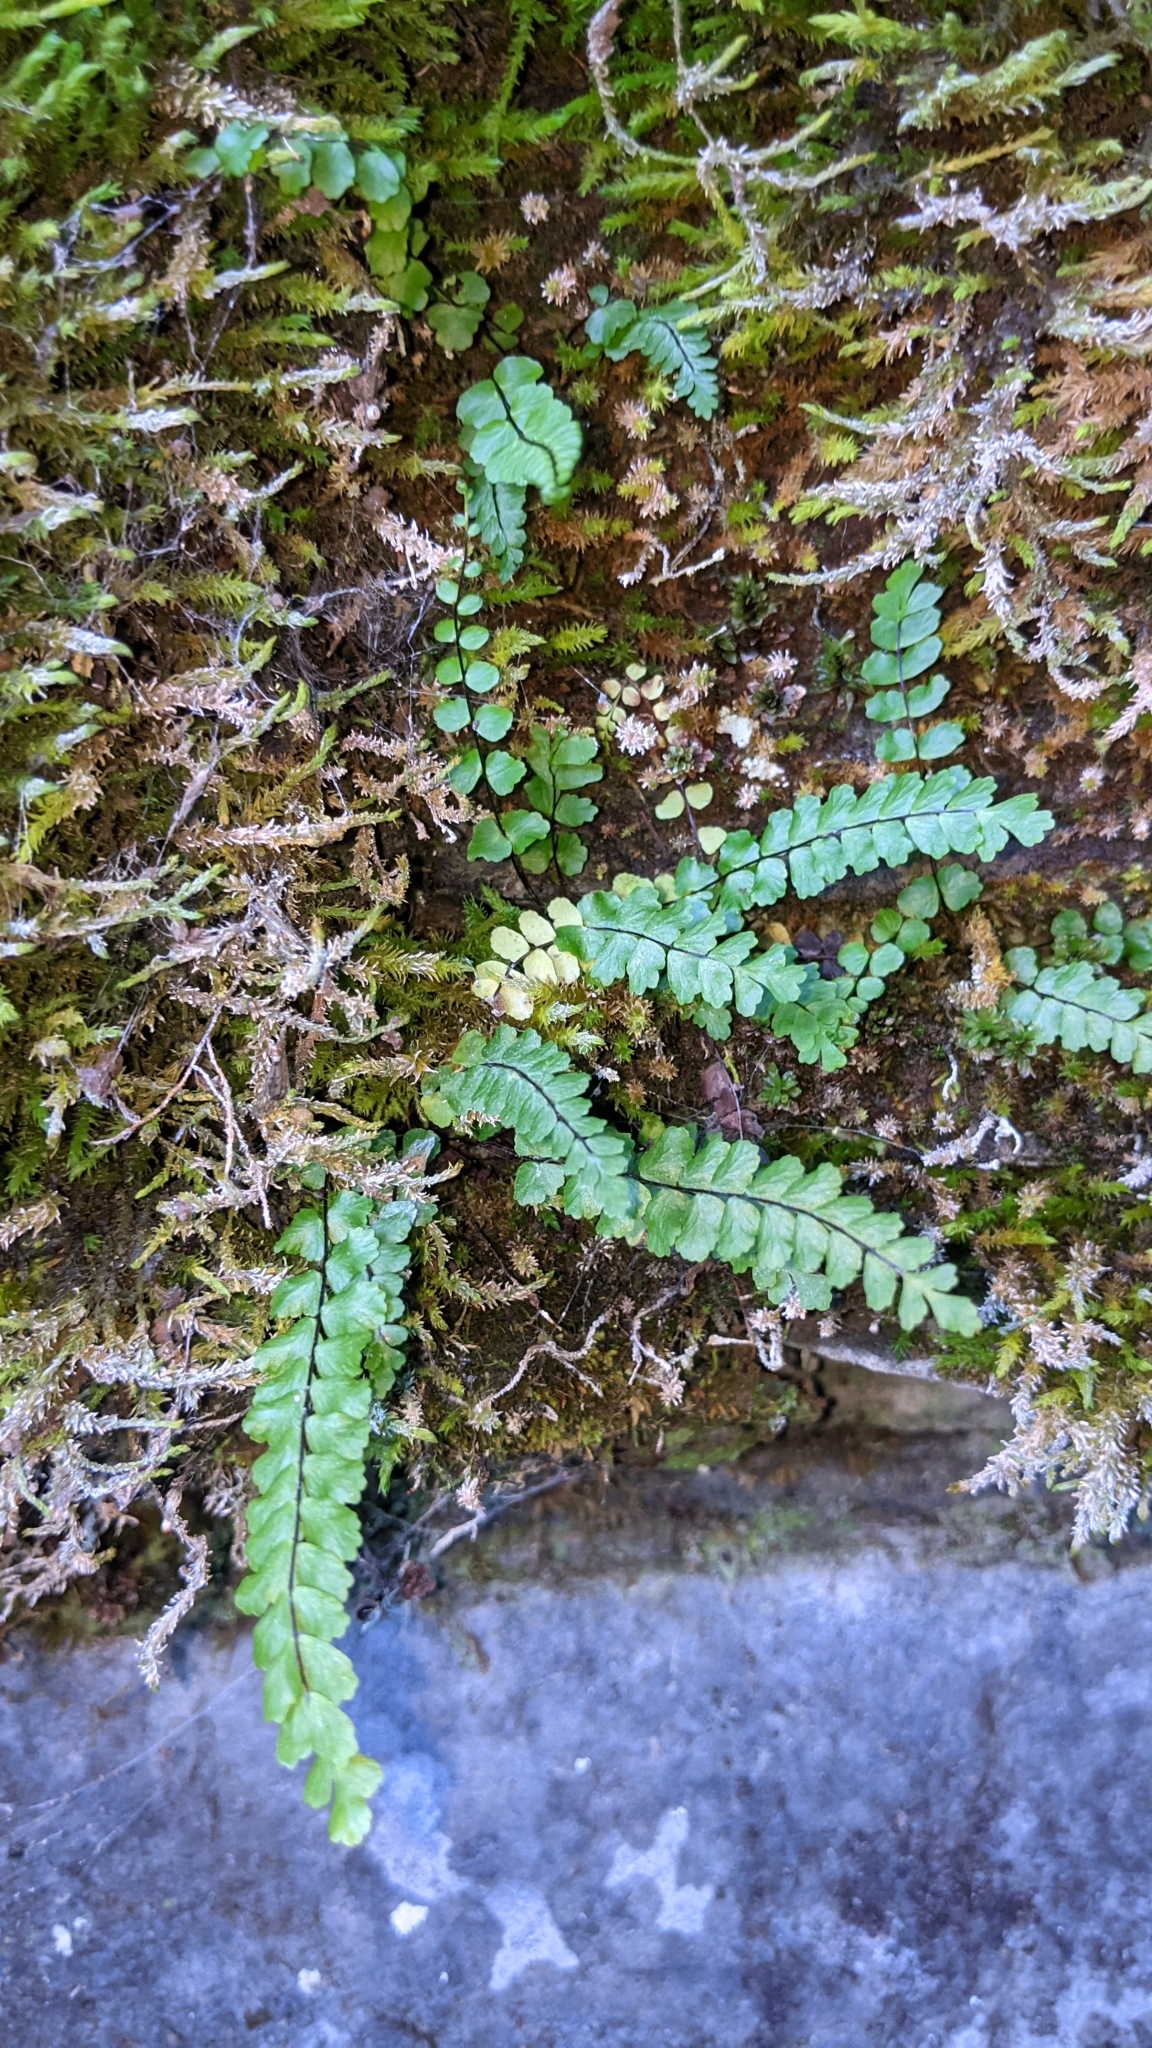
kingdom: Plantae
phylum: Tracheophyta
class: Polypodiopsida
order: Polypodiales
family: Aspleniaceae
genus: Asplenium
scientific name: Asplenium trichomanes
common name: Maidenhair spleenwort
